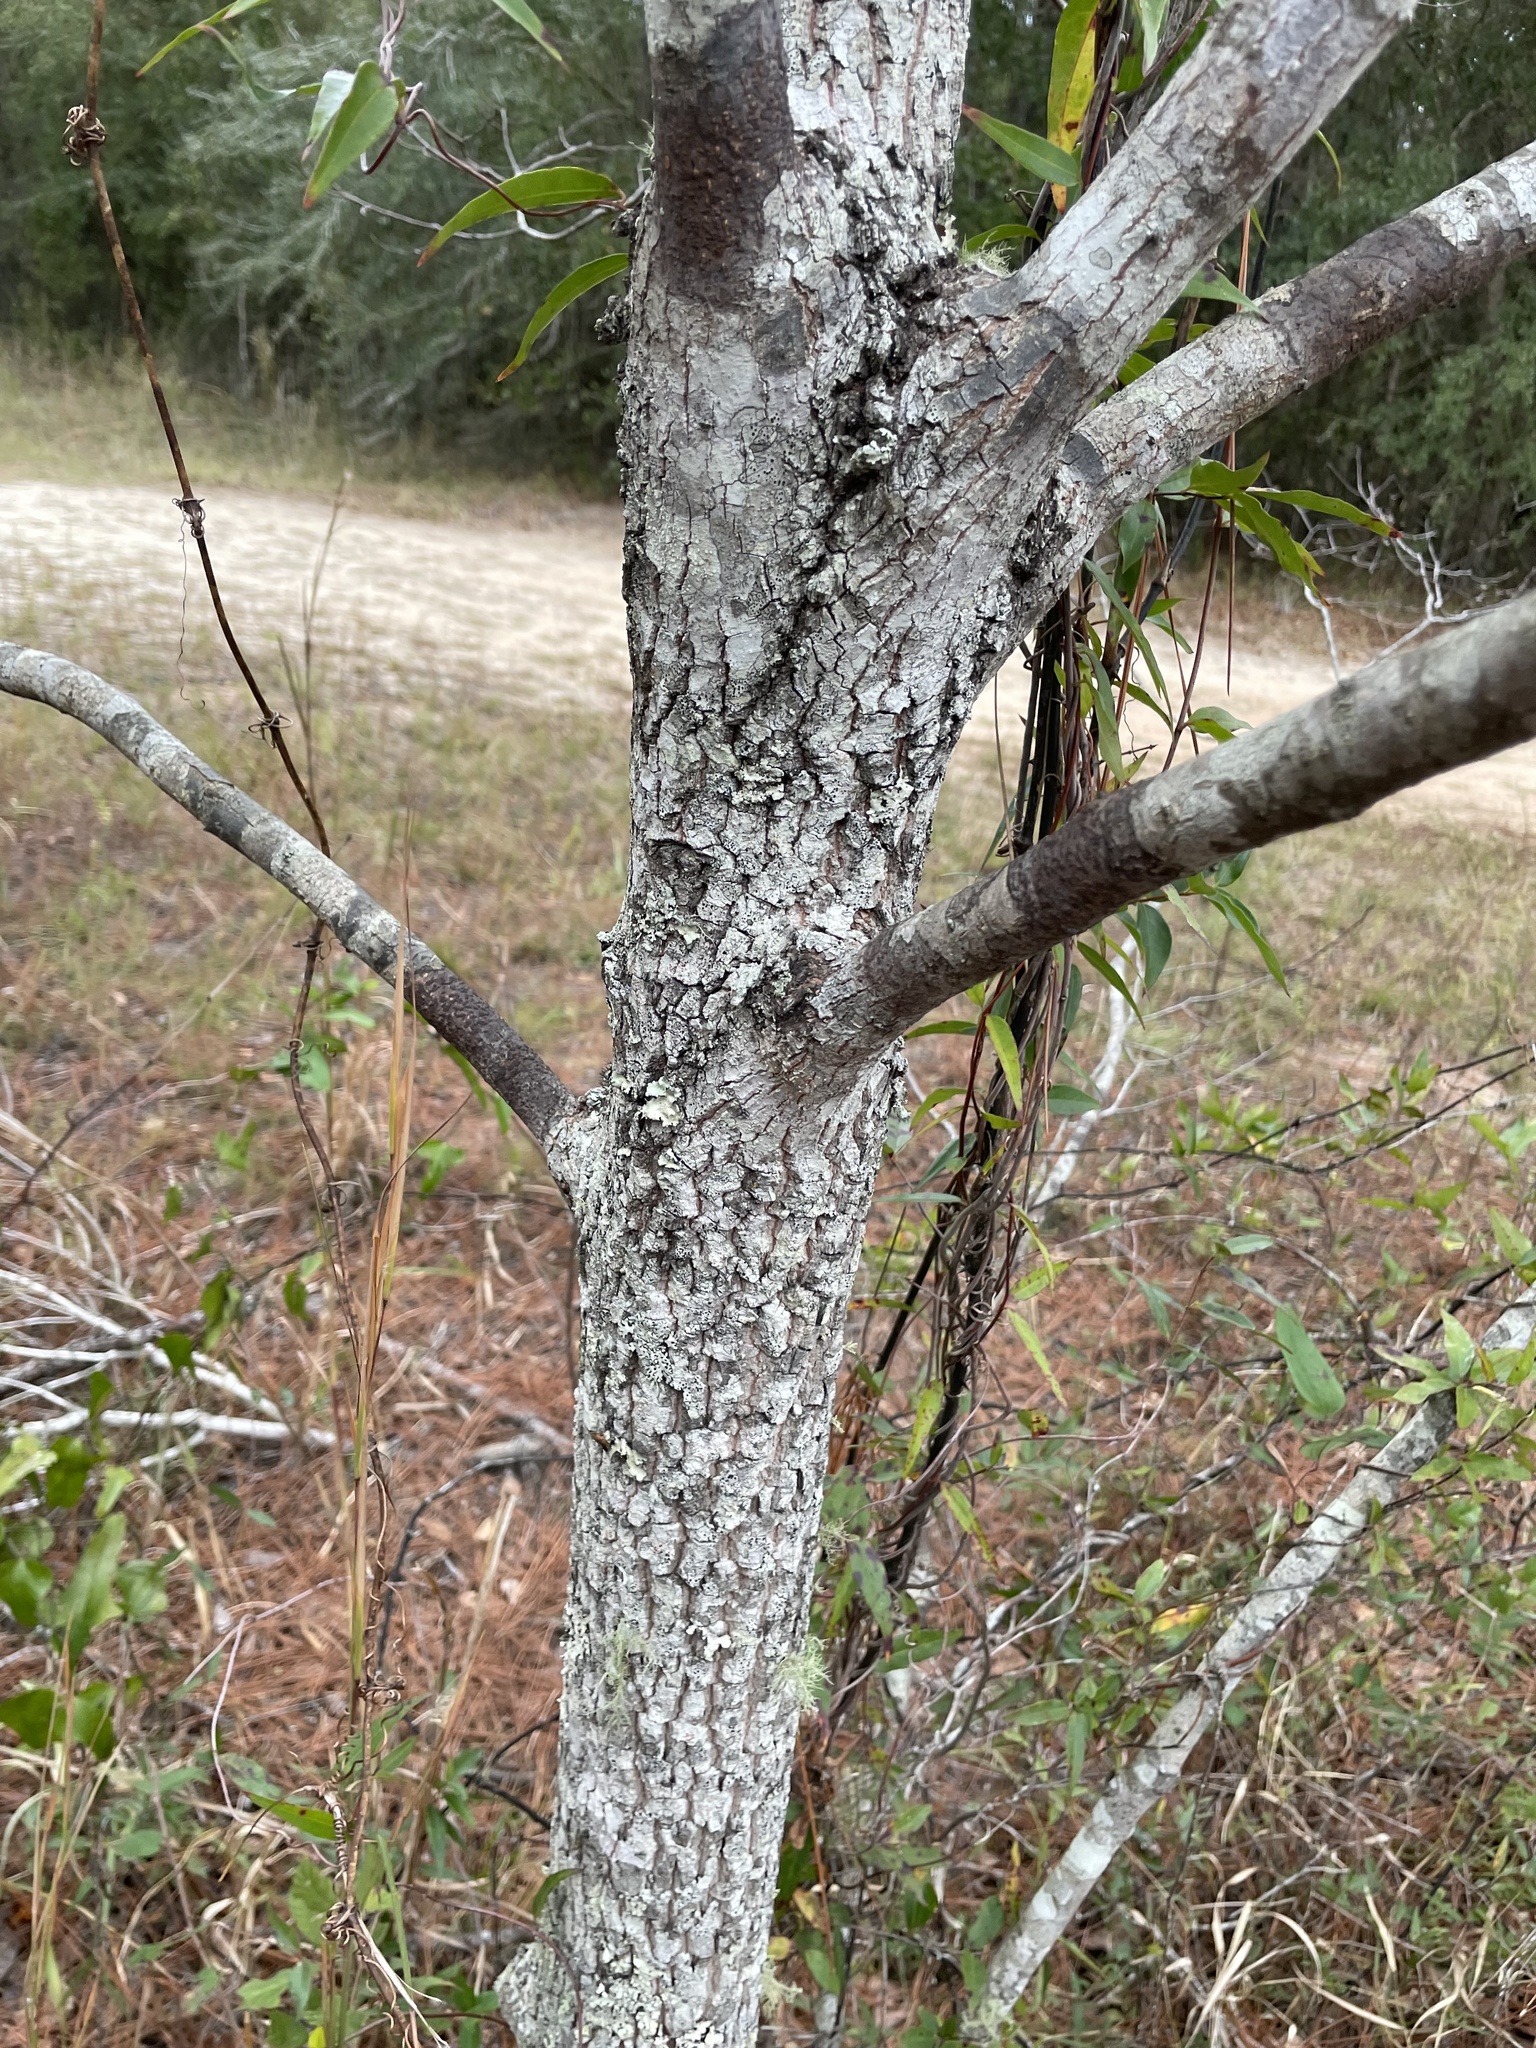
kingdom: Plantae
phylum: Tracheophyta
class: Magnoliopsida
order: Ericales
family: Ebenaceae
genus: Diospyros
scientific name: Diospyros virginiana
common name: Persimmon
